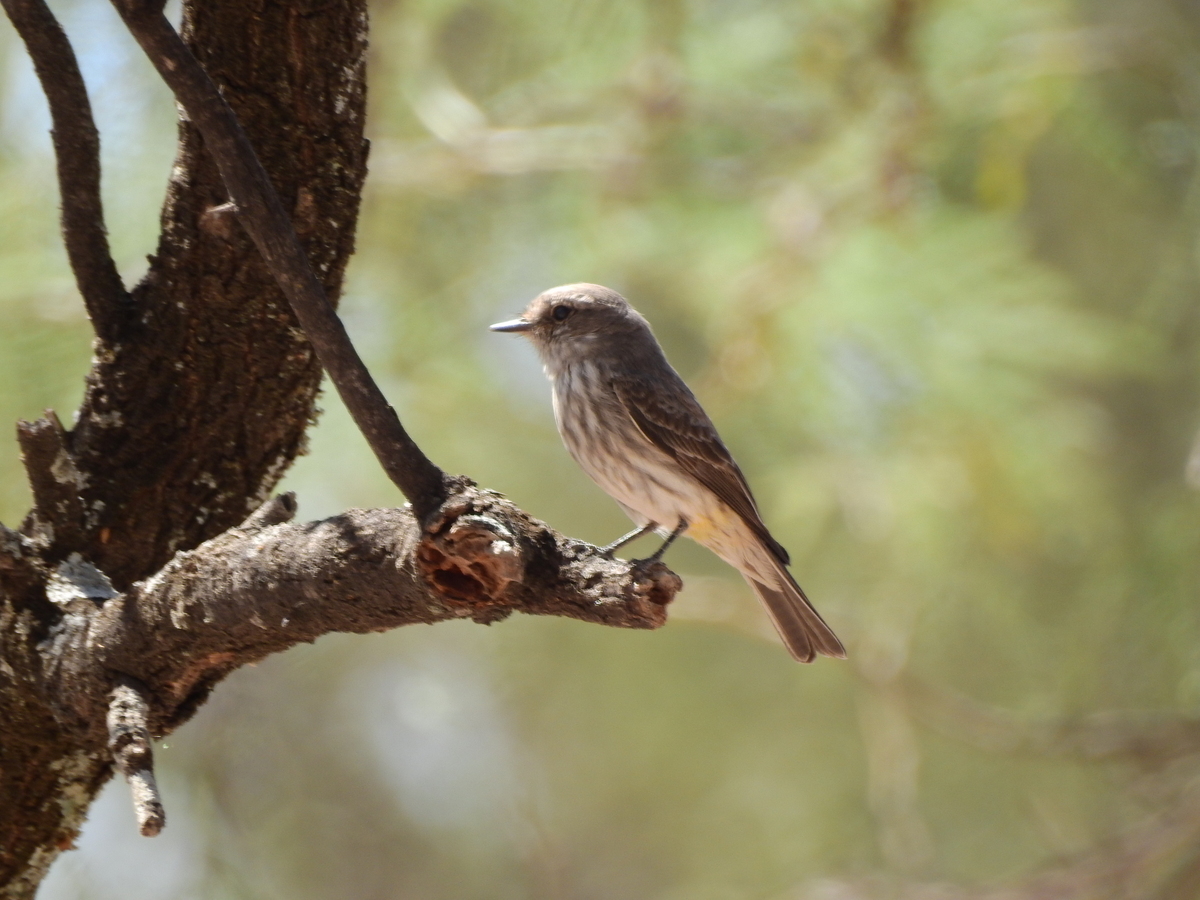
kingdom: Animalia
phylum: Chordata
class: Aves
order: Passeriformes
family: Tyrannidae
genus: Pyrocephalus
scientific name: Pyrocephalus rubinus
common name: Vermilion flycatcher
